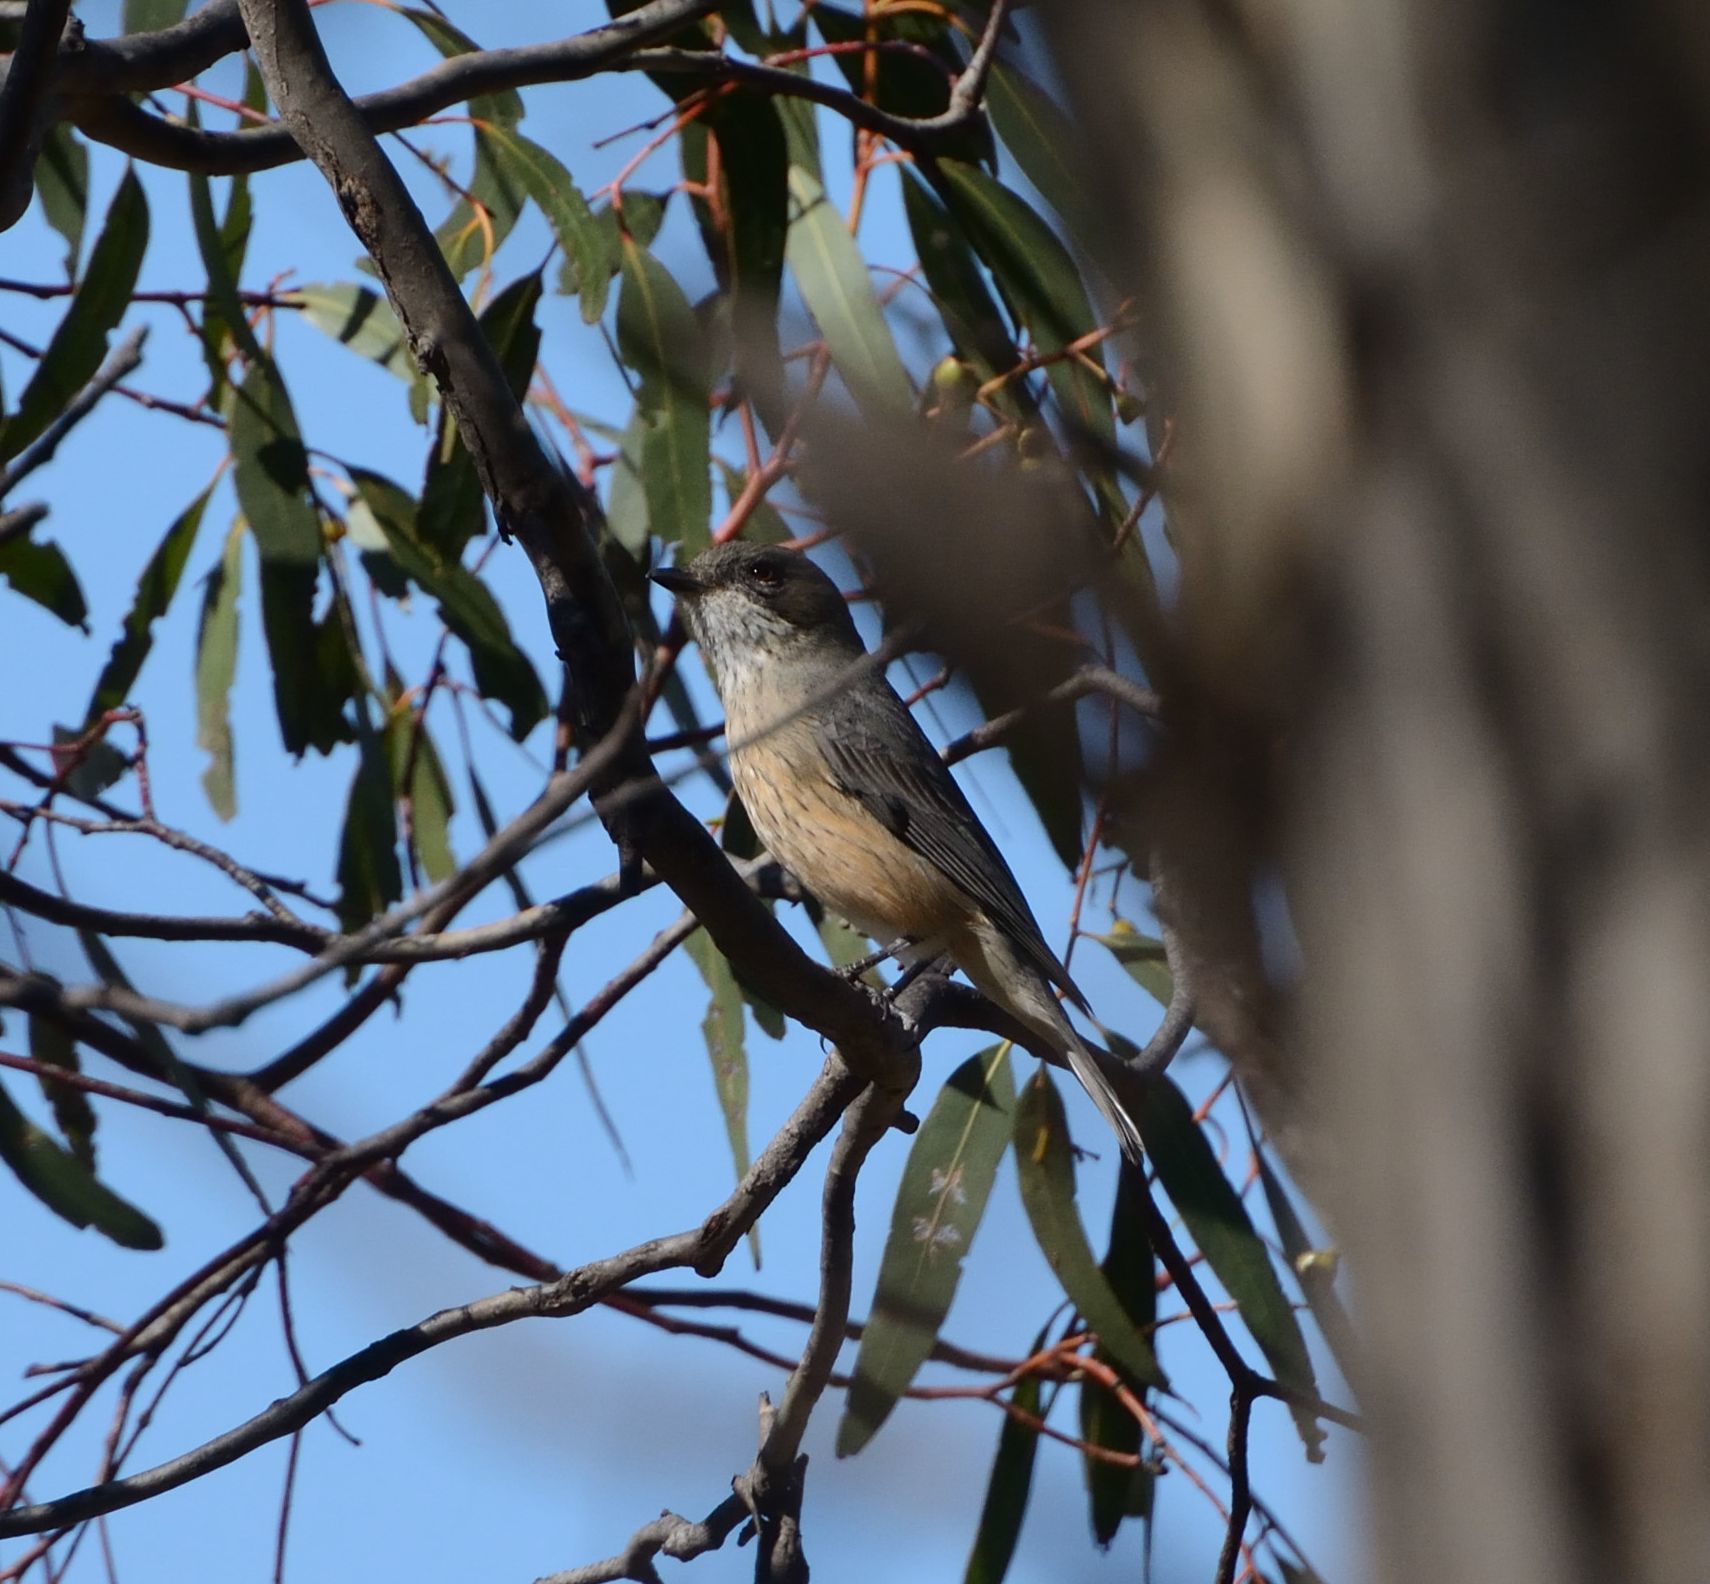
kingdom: Animalia
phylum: Chordata
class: Aves
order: Passeriformes
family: Pachycephalidae
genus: Pachycephala
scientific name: Pachycephala rufiventris
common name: Rufous whistler
